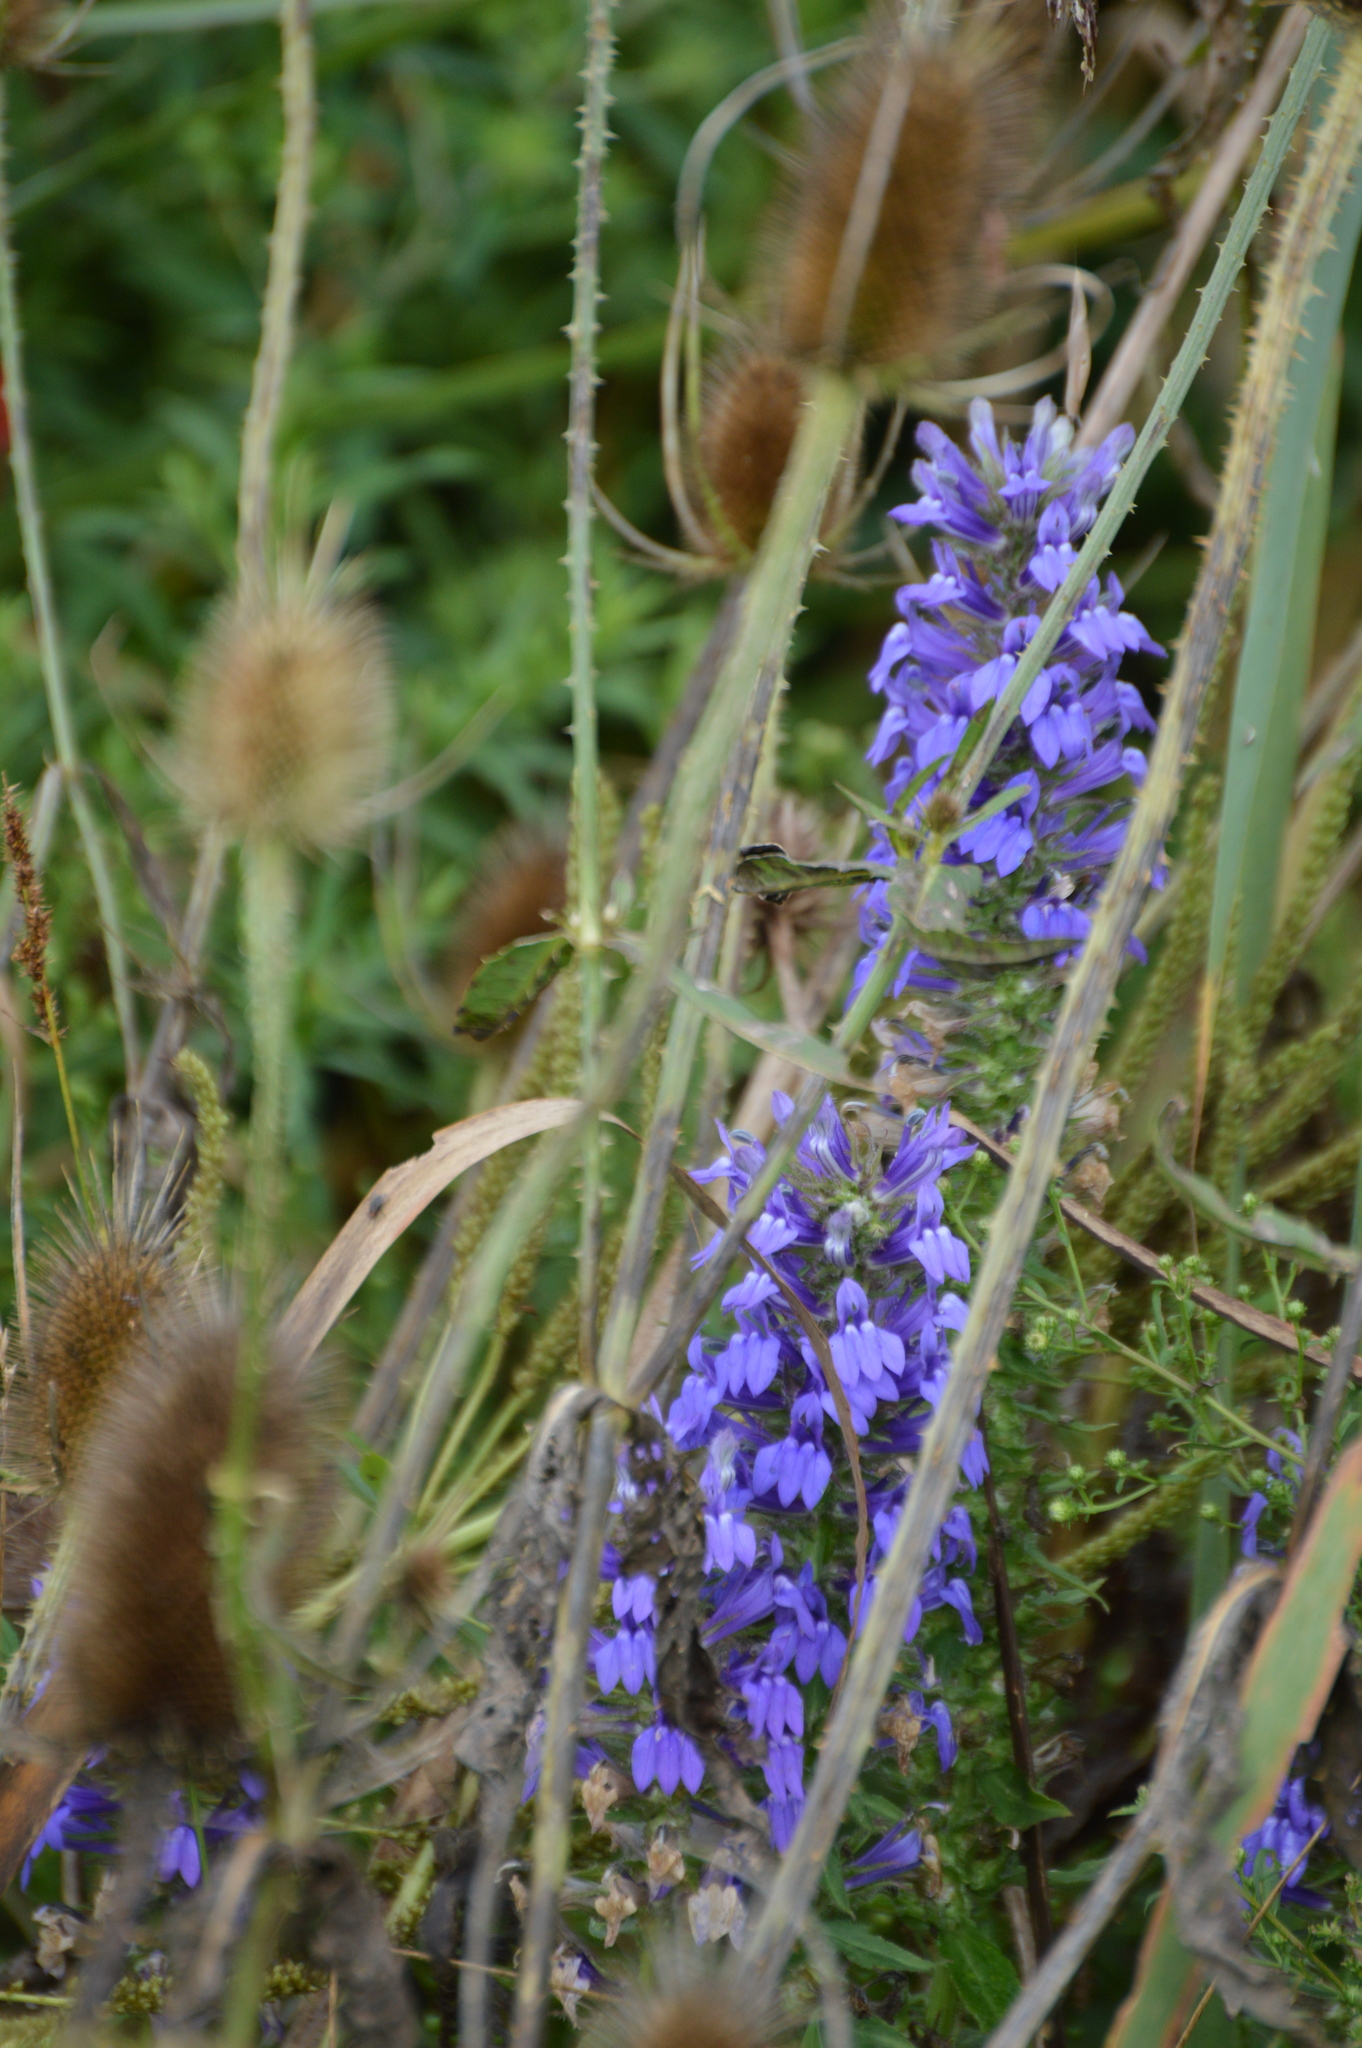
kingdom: Plantae
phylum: Tracheophyta
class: Magnoliopsida
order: Asterales
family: Campanulaceae
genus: Lobelia
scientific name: Lobelia siphilitica
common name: Great lobelia
